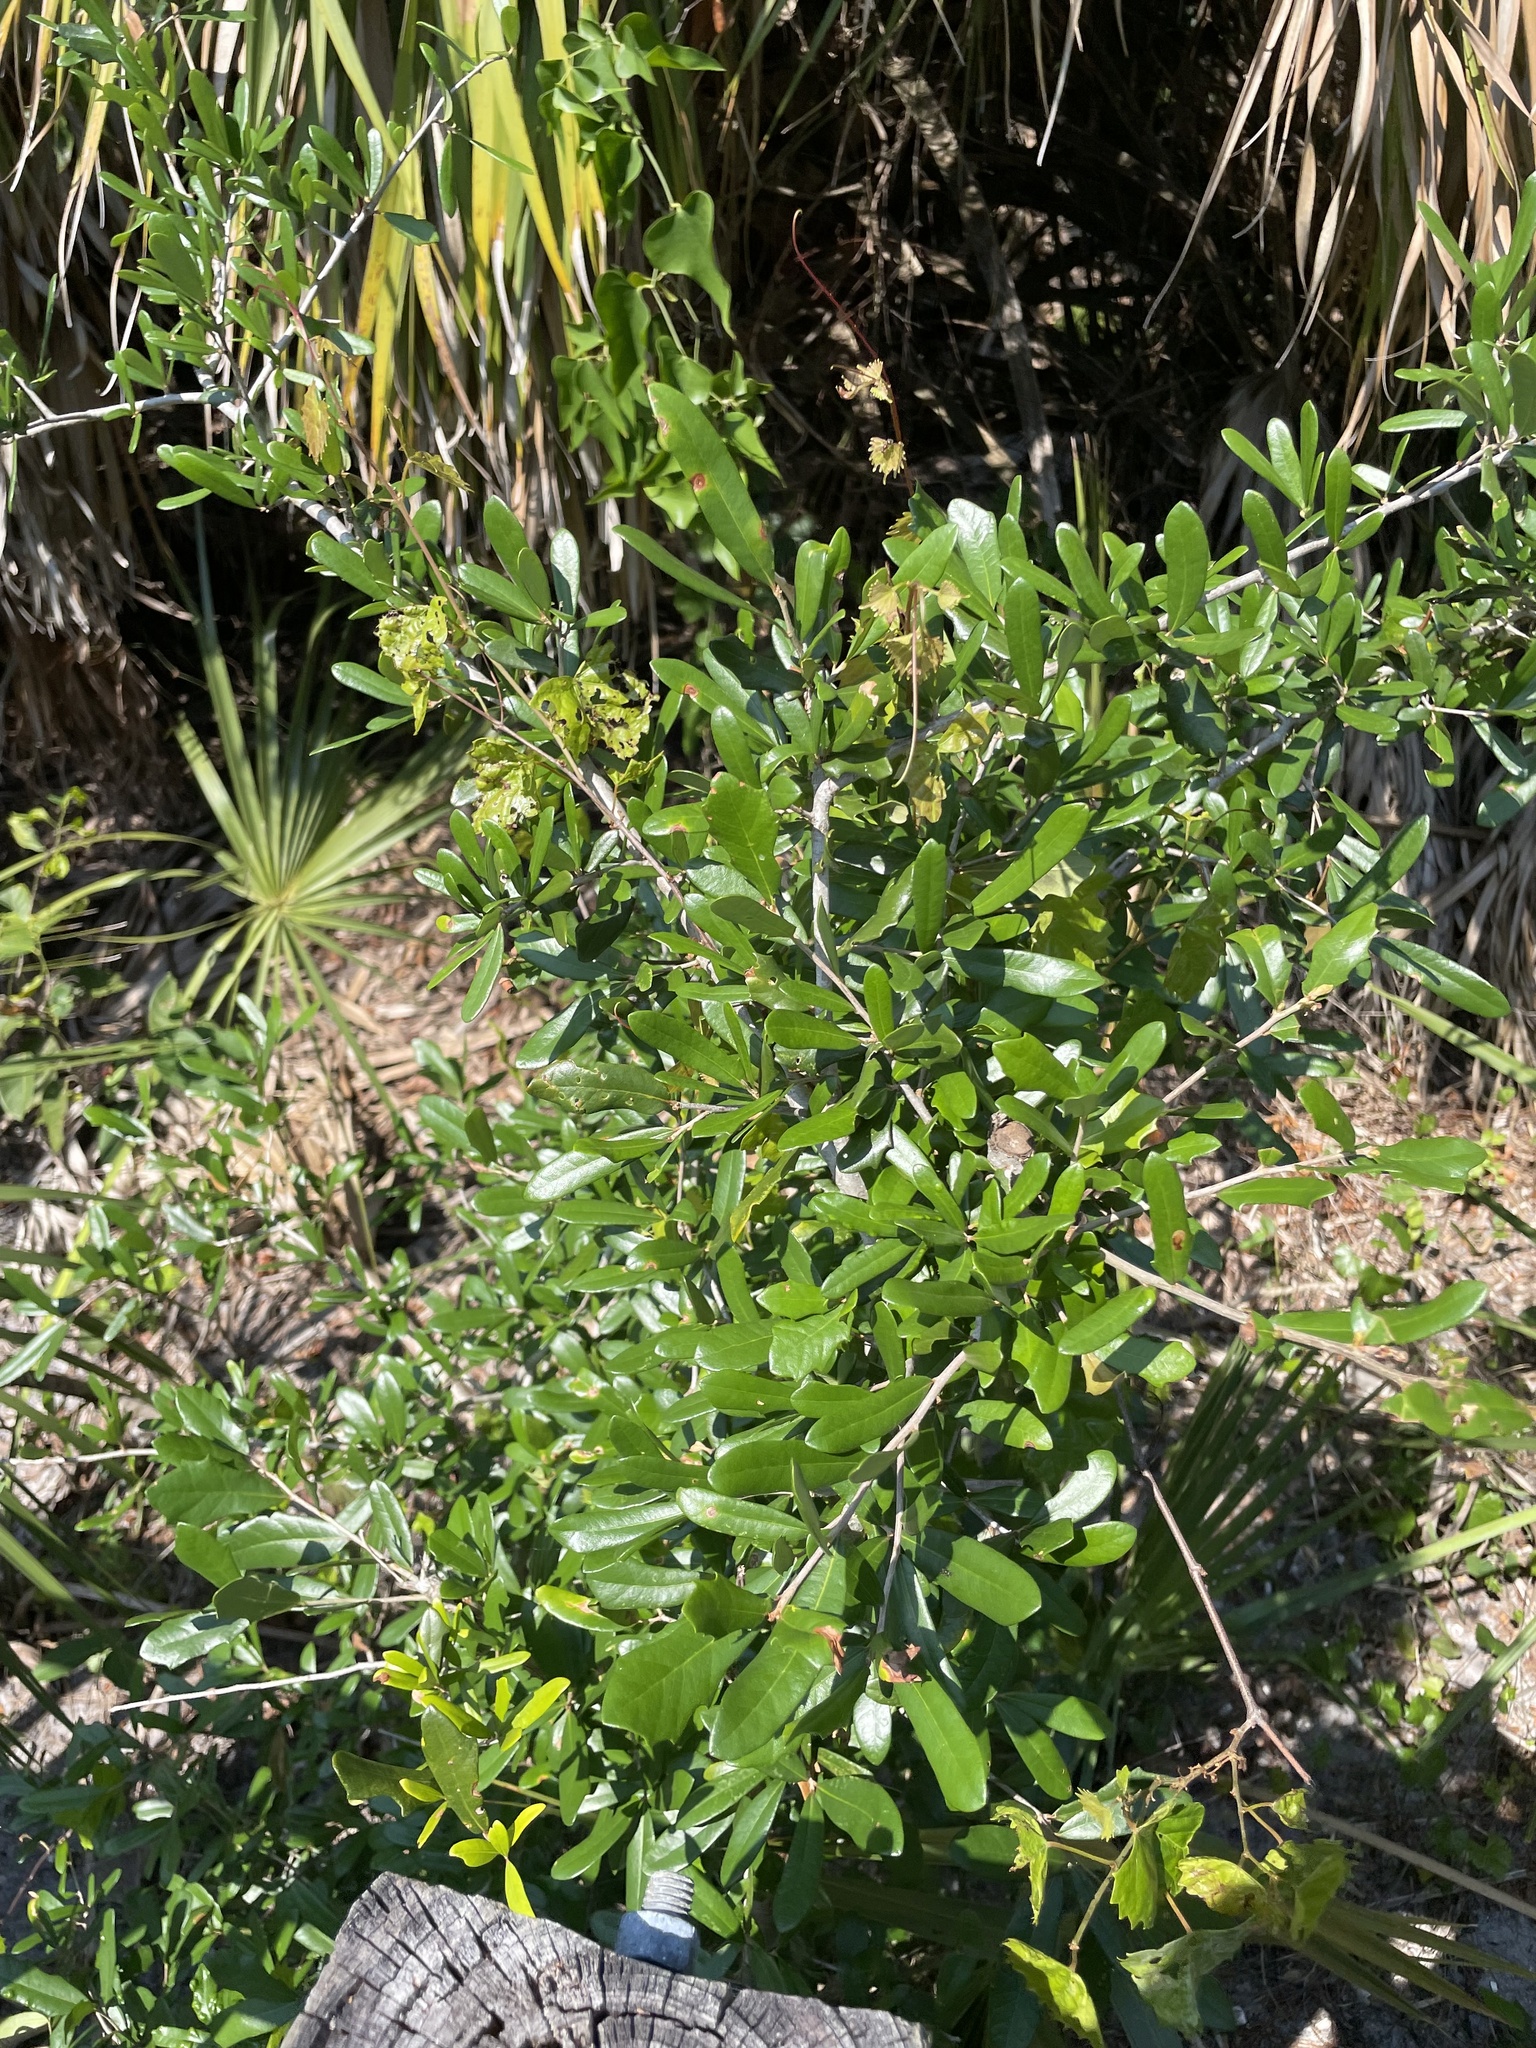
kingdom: Plantae
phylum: Tracheophyta
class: Magnoliopsida
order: Fagales
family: Fagaceae
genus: Quercus
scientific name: Quercus virginiana
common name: Southern live oak
